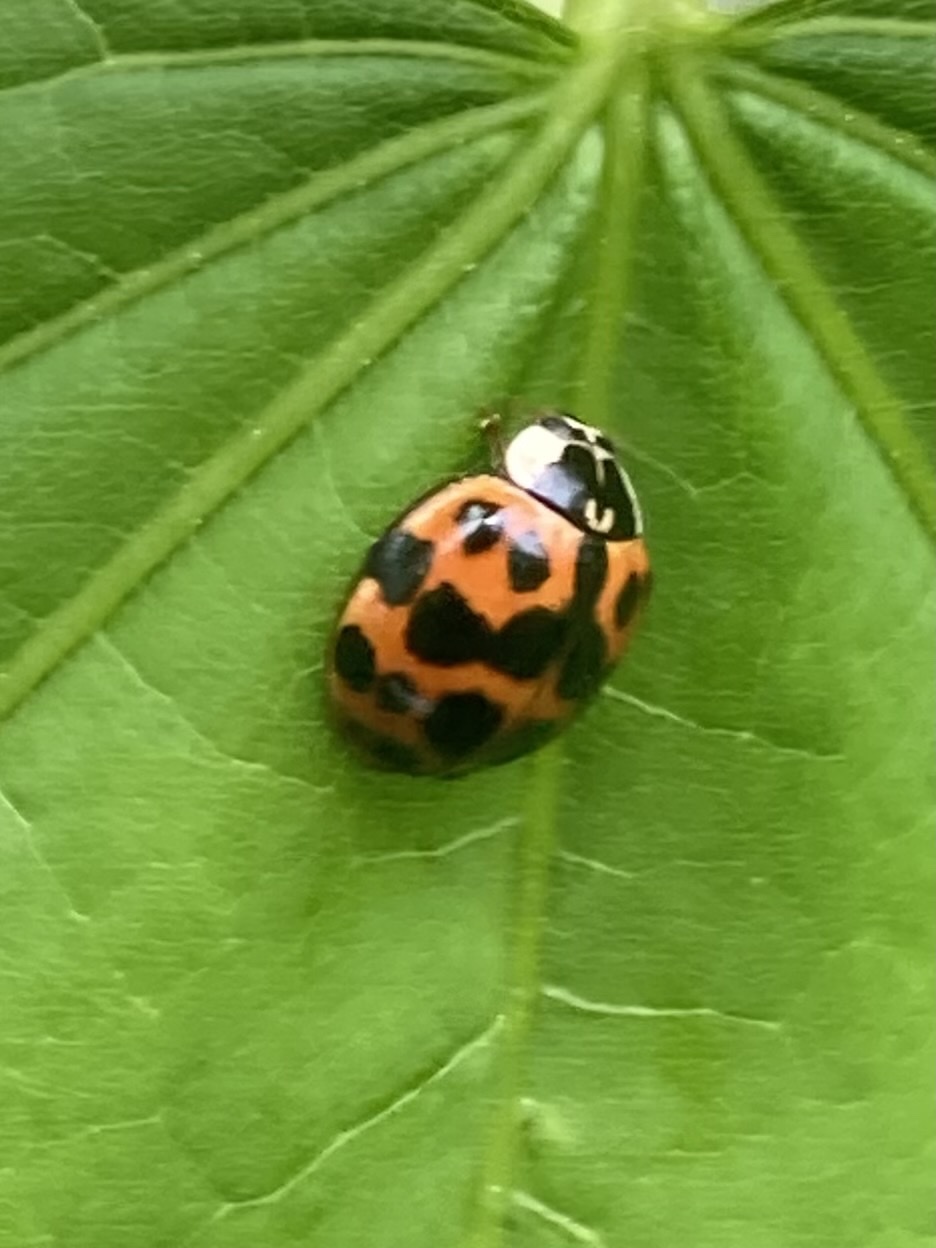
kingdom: Animalia
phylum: Arthropoda
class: Insecta
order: Coleoptera
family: Coccinellidae
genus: Harmonia
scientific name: Harmonia axyridis
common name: Harlequin ladybird
